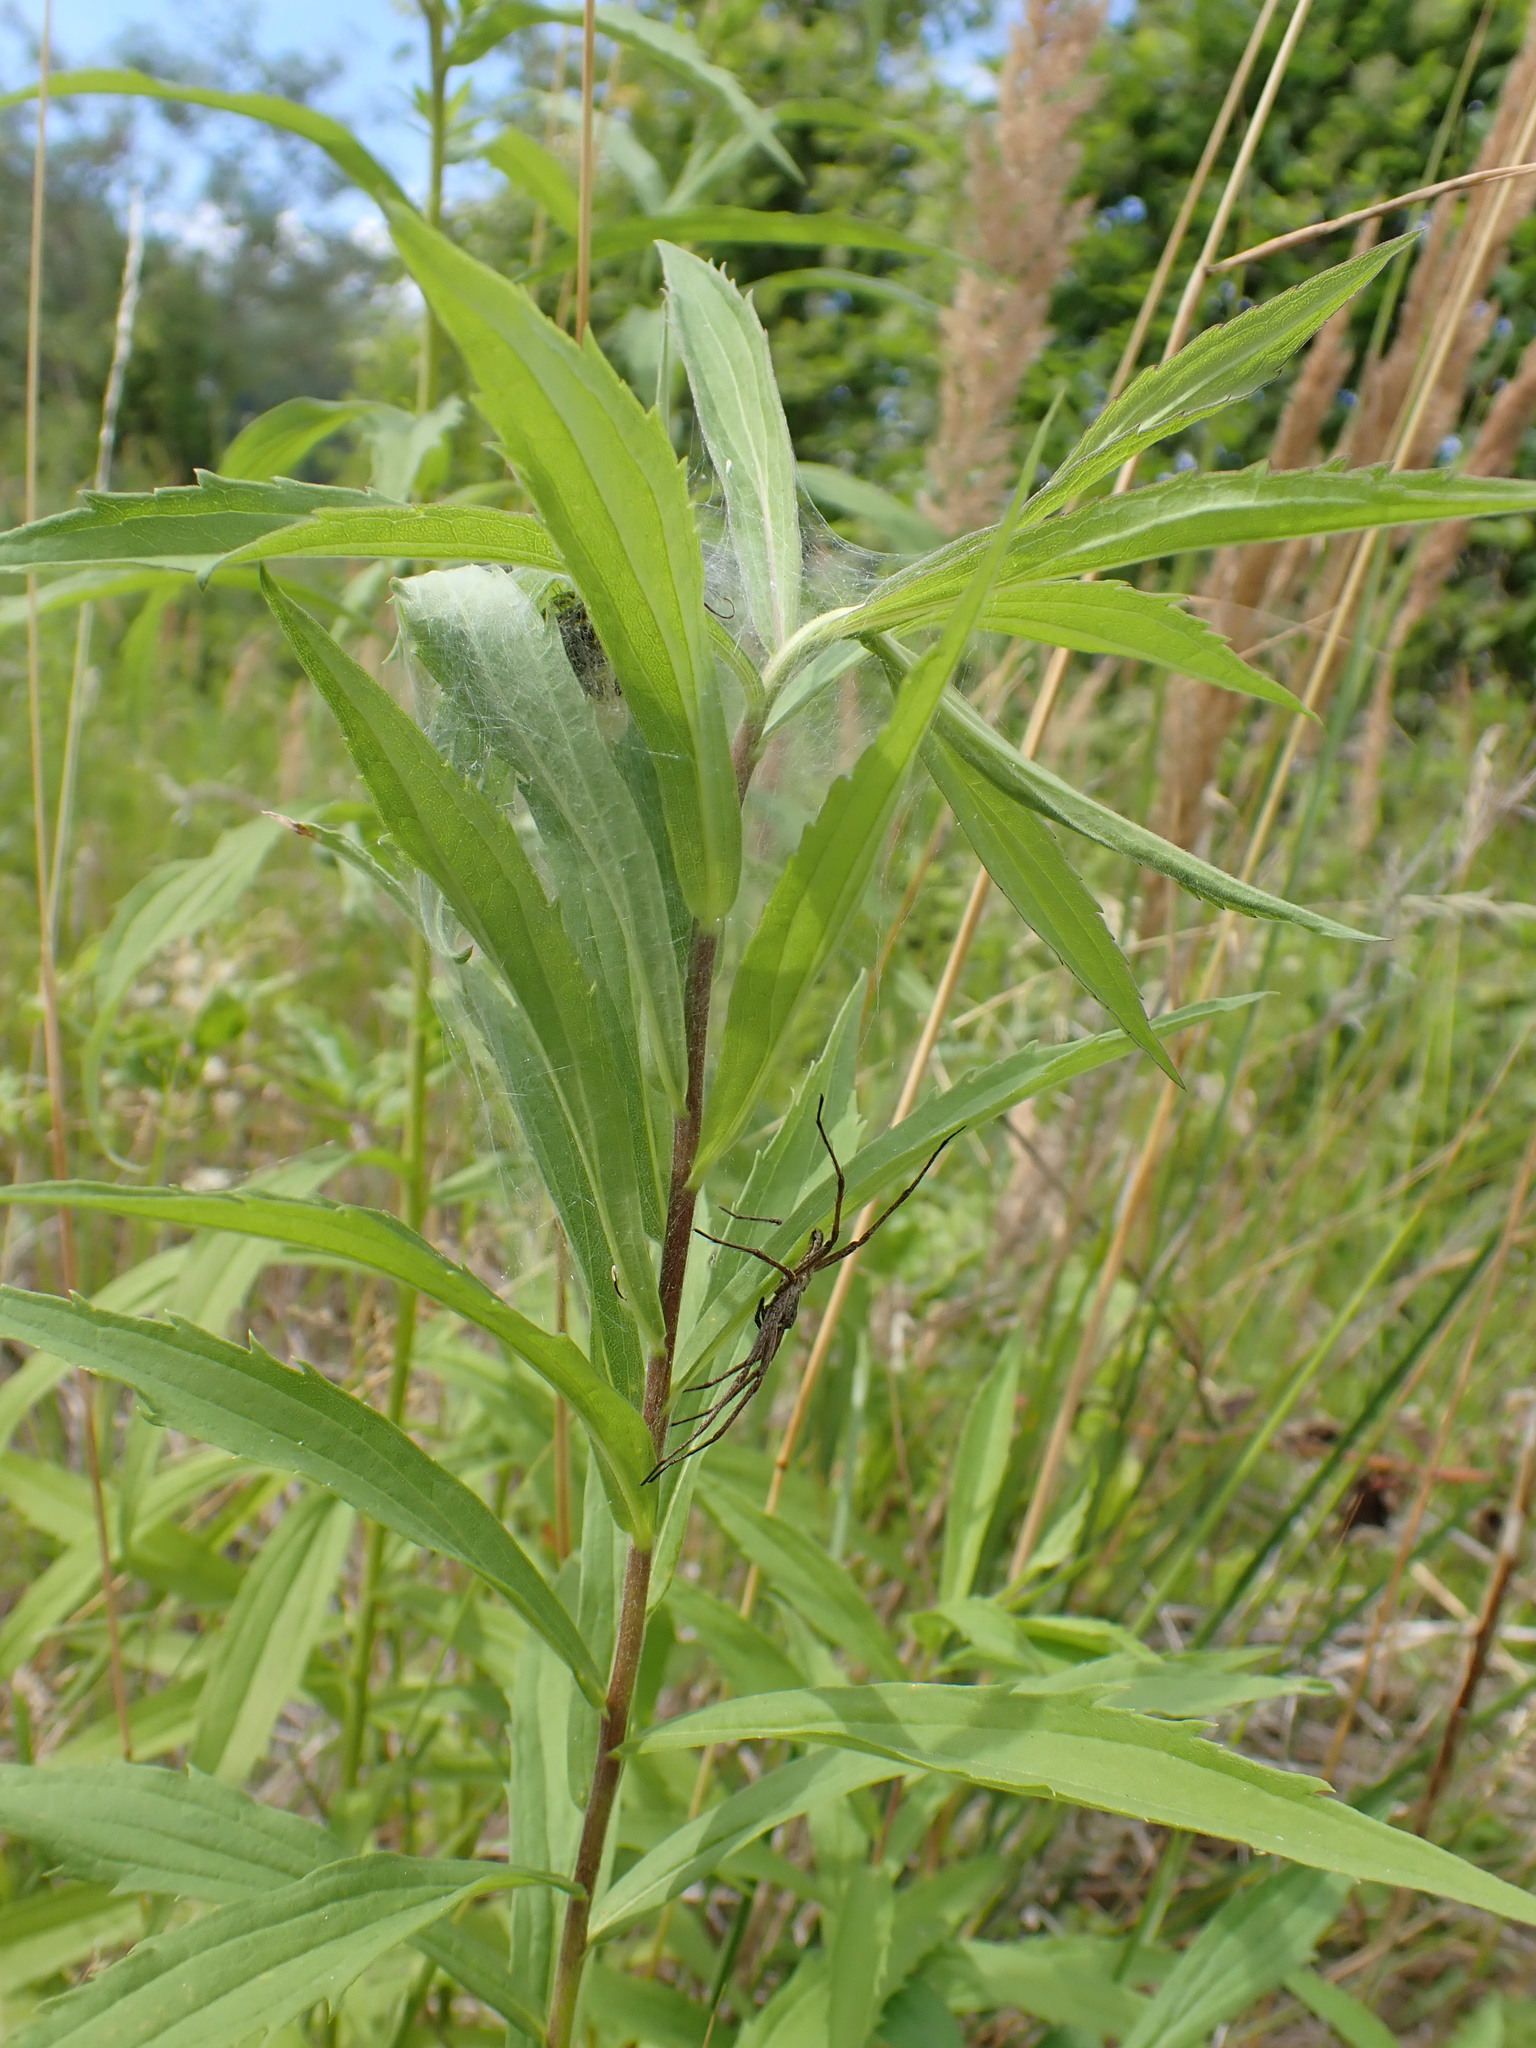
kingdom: Animalia
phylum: Arthropoda
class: Arachnida
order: Araneae
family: Pisauridae
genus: Pisaura
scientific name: Pisaura mirabilis
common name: Tent spider
